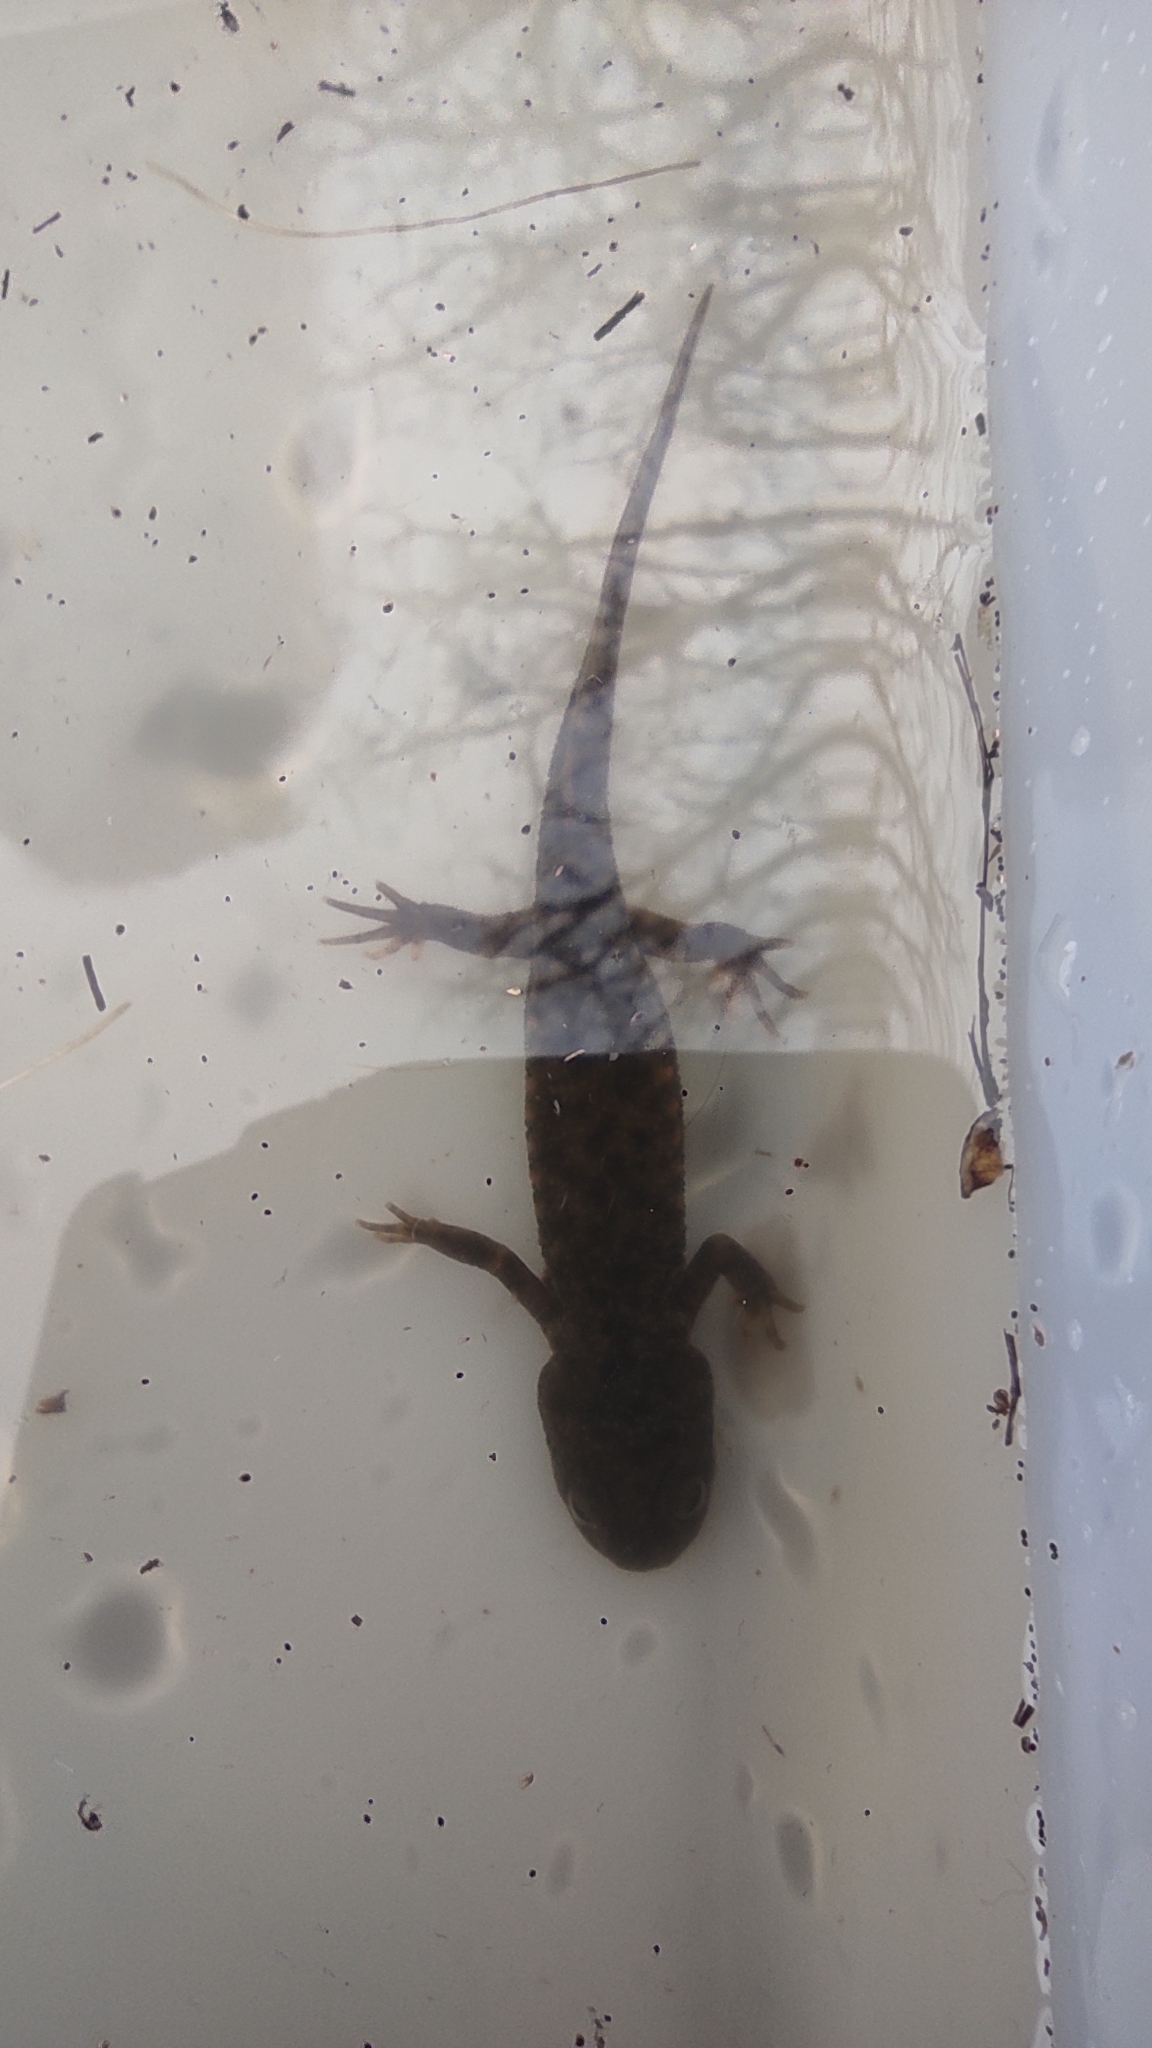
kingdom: Animalia
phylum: Chordata
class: Amphibia
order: Caudata
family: Salamandridae
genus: Pleurodeles
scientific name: Pleurodeles waltl
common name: Iberian ribbed newt
